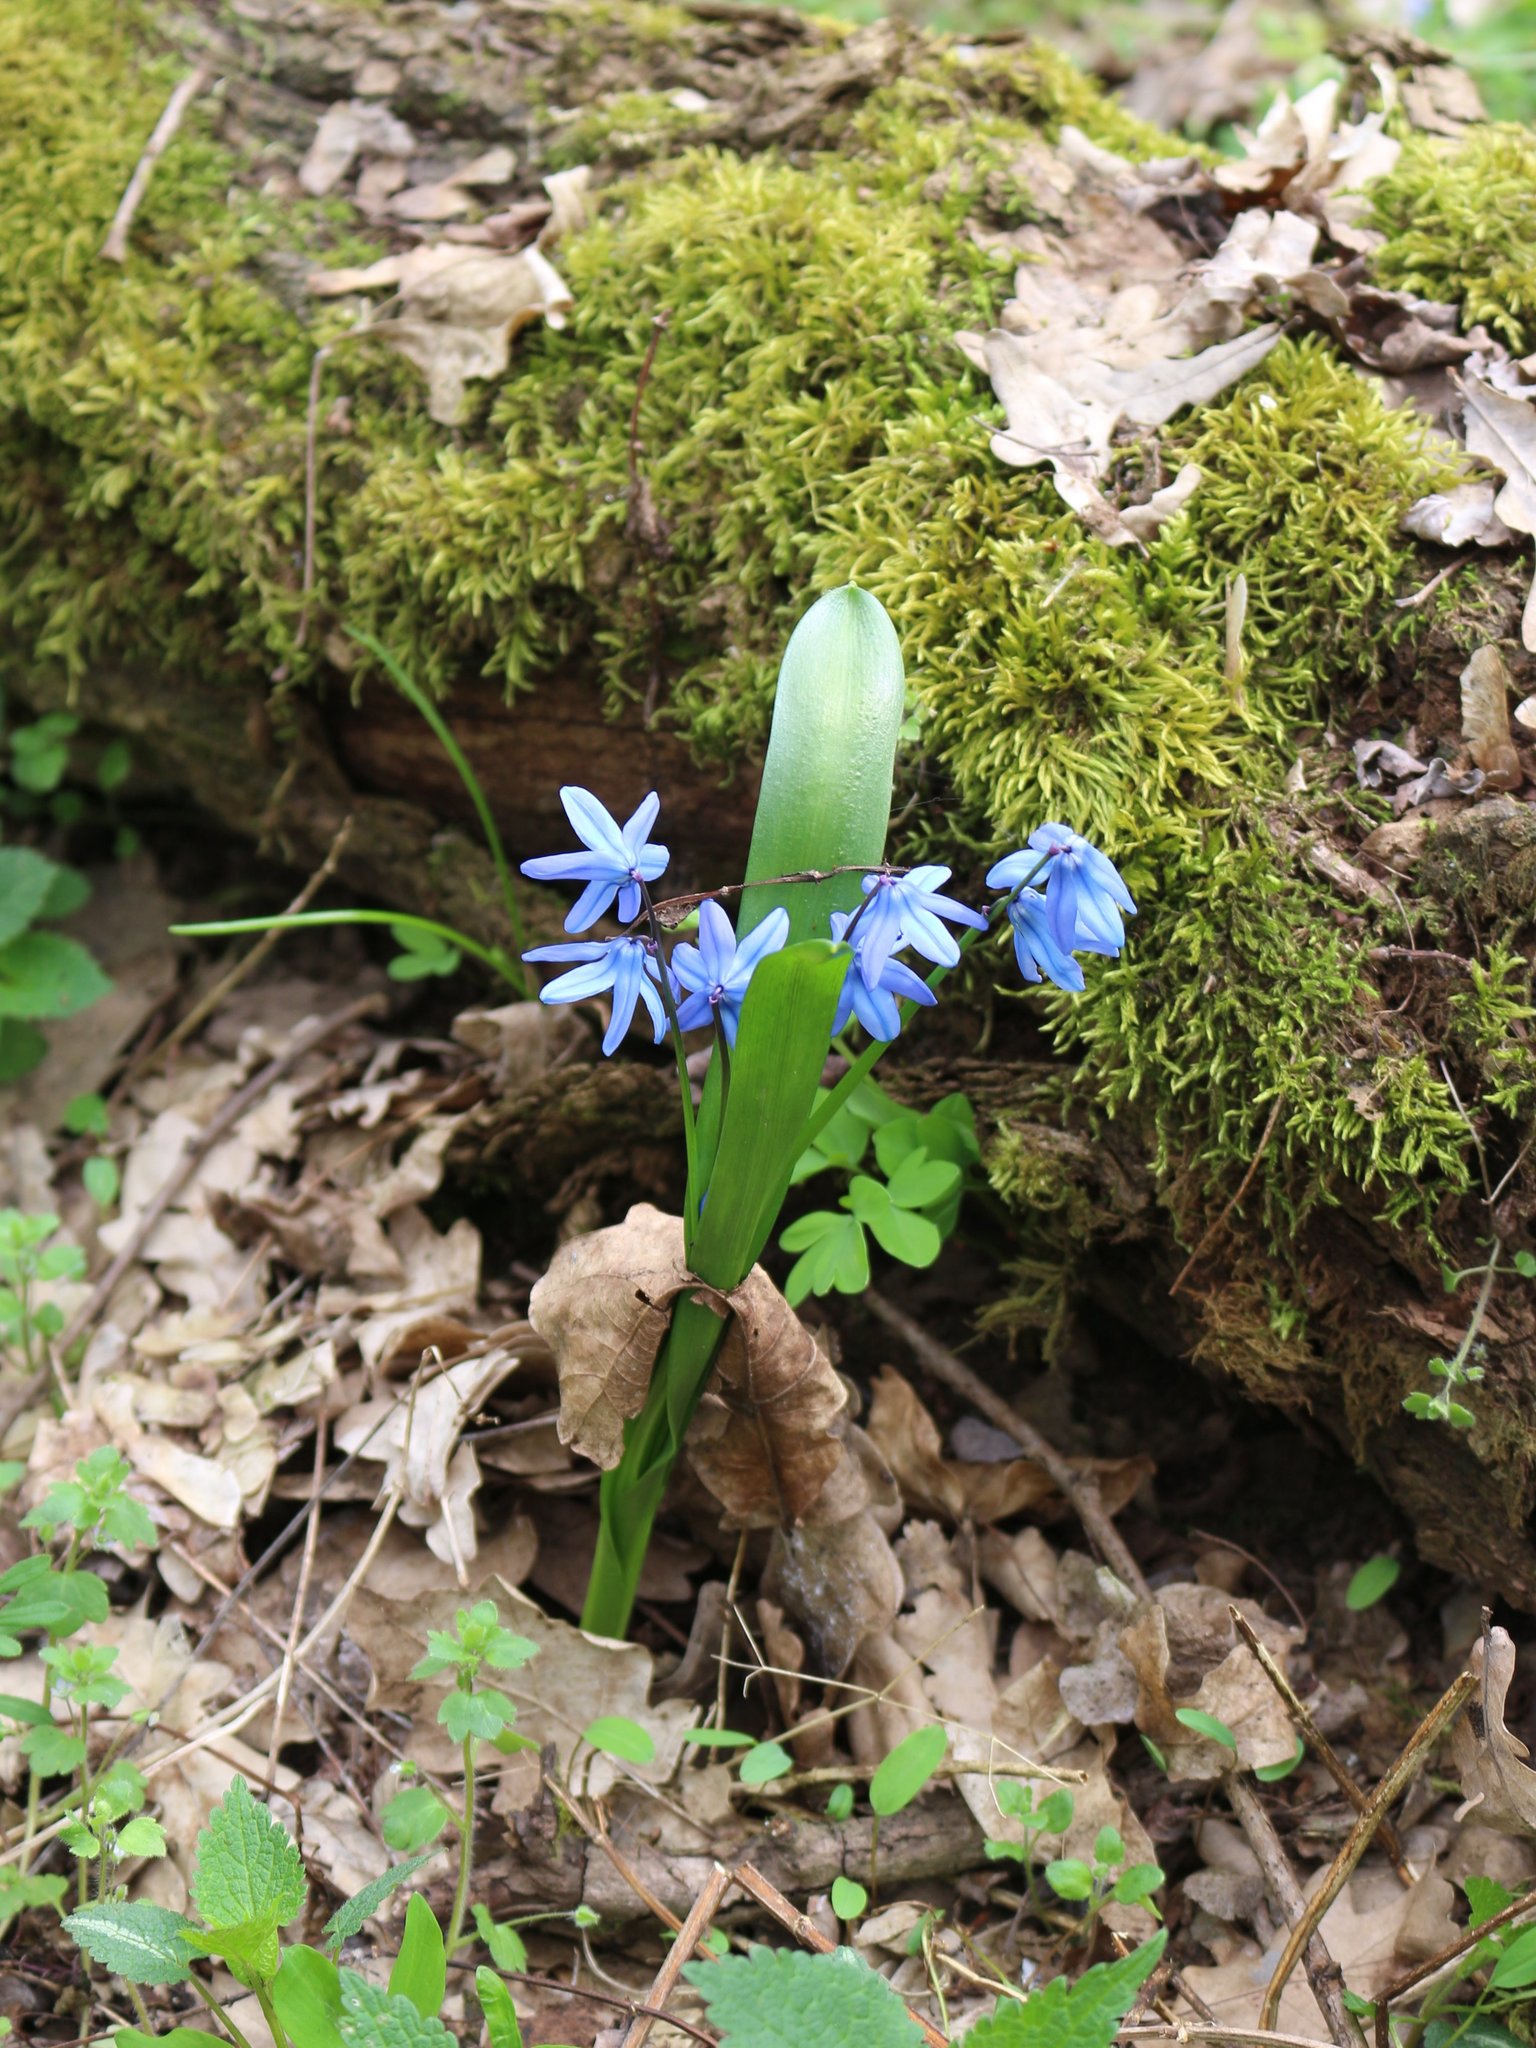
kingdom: Plantae
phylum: Tracheophyta
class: Liliopsida
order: Asparagales
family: Asparagaceae
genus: Scilla
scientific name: Scilla siberica
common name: Siberian squill
